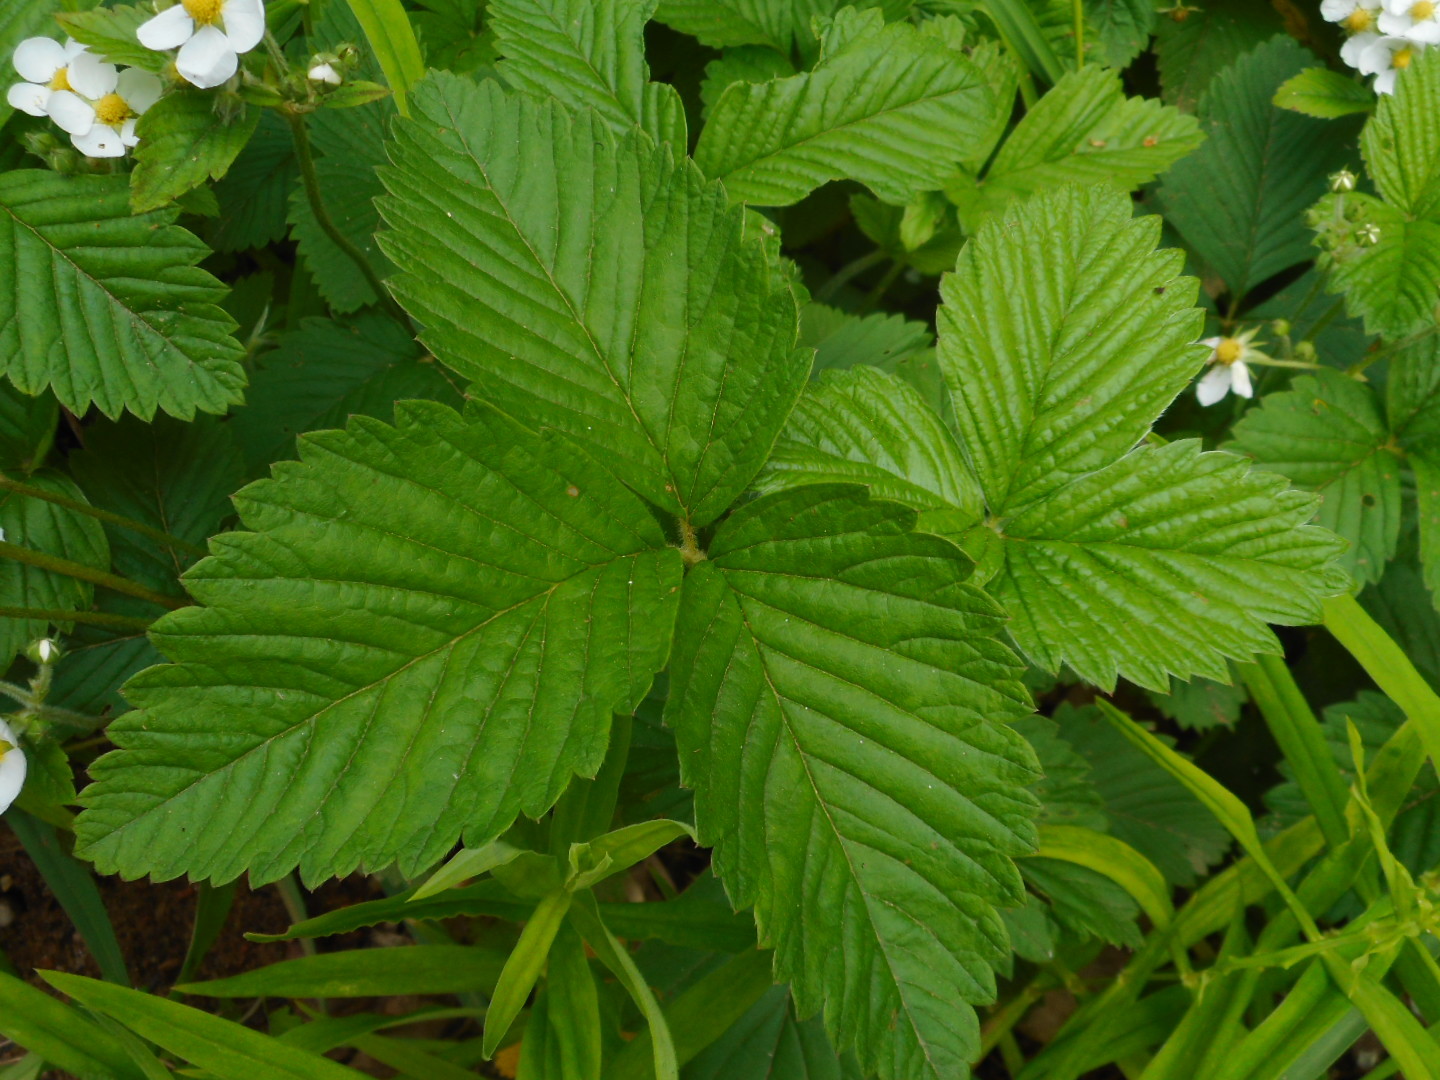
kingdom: Plantae
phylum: Tracheophyta
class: Magnoliopsida
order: Rosales
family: Rosaceae
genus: Fragaria
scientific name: Fragaria moschata
